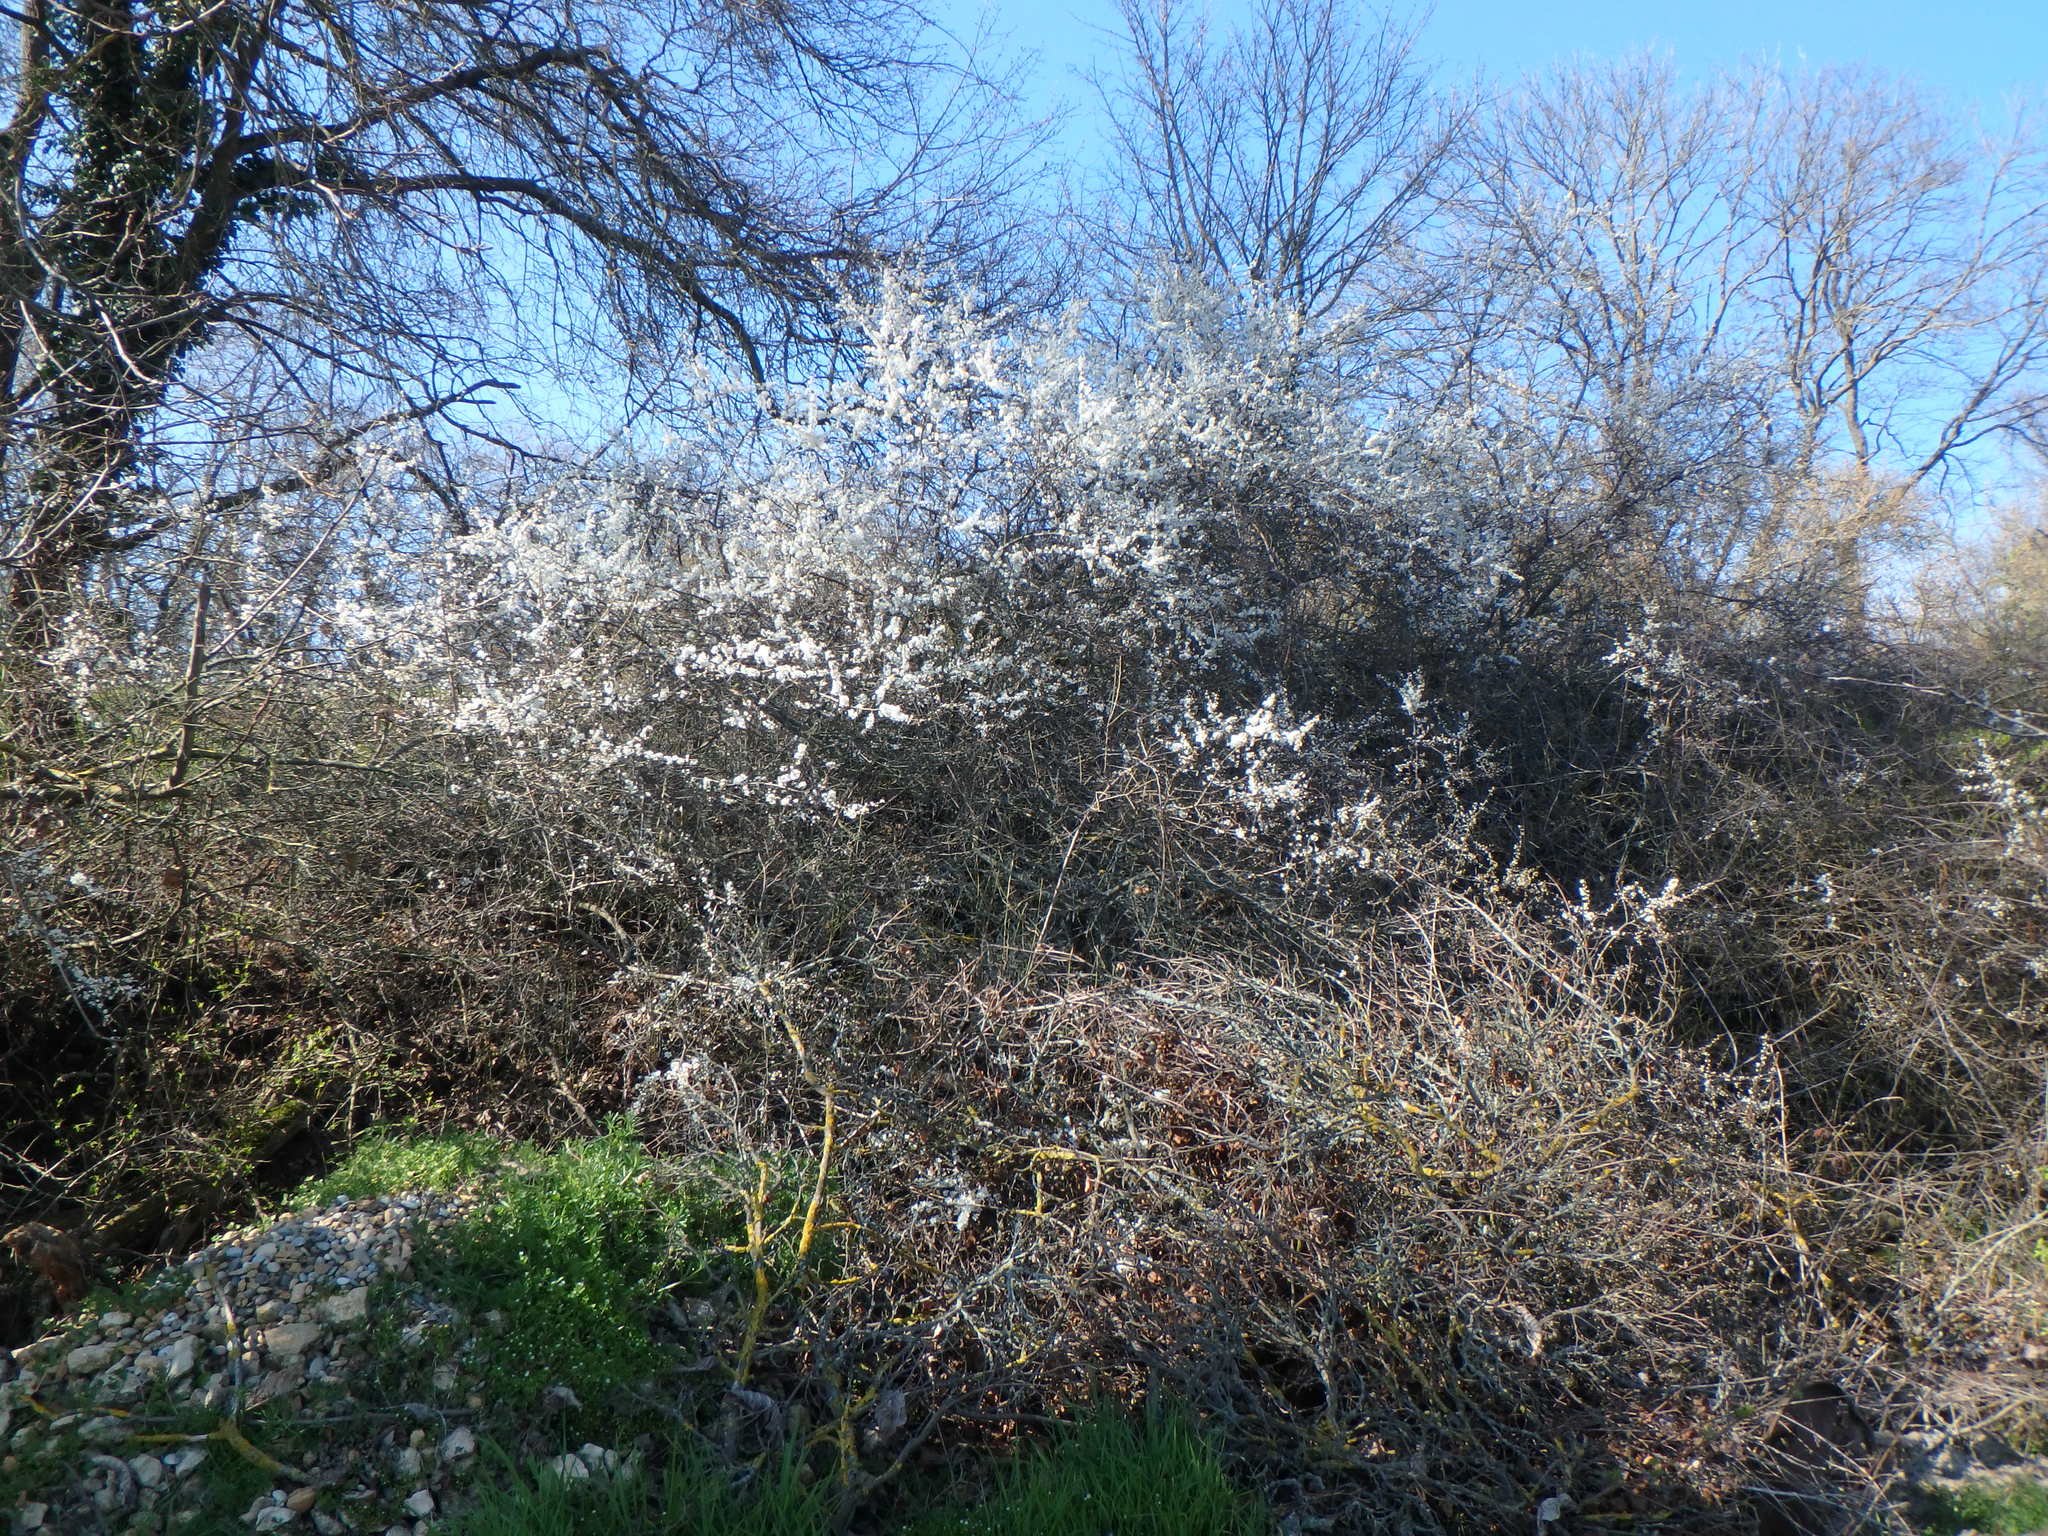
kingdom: Plantae
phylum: Tracheophyta
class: Magnoliopsida
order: Rosales
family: Rosaceae
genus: Prunus
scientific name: Prunus spinosa
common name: Blackthorn
